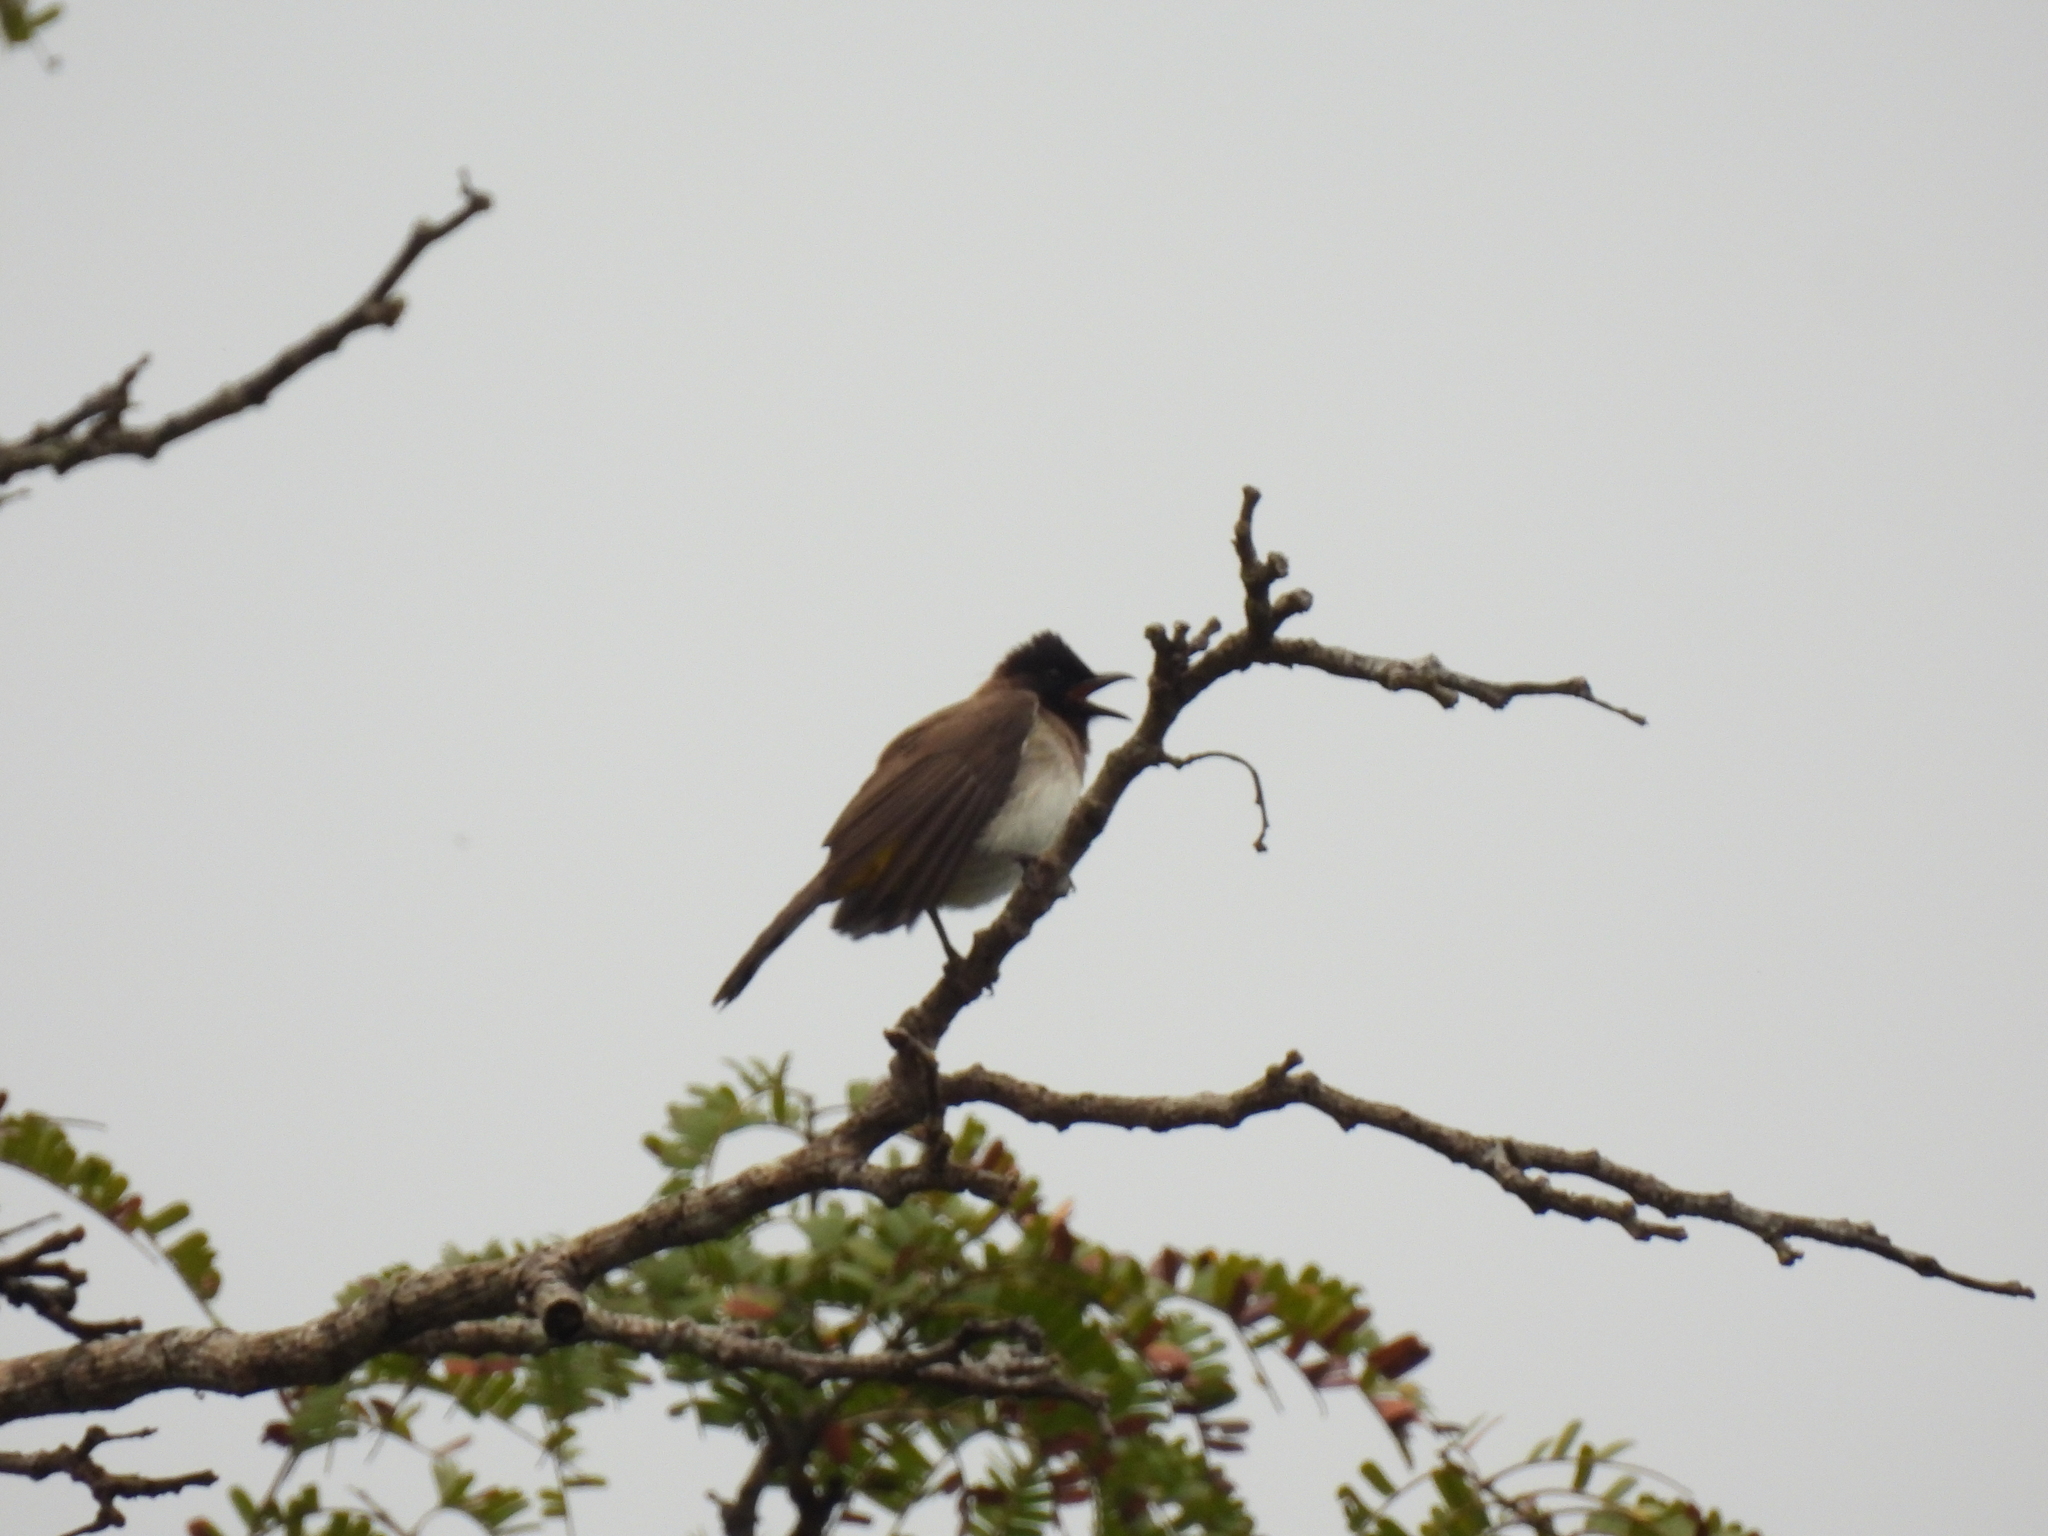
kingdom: Animalia
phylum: Chordata
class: Aves
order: Passeriformes
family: Pycnonotidae
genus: Pycnonotus
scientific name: Pycnonotus barbatus
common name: Common bulbul
